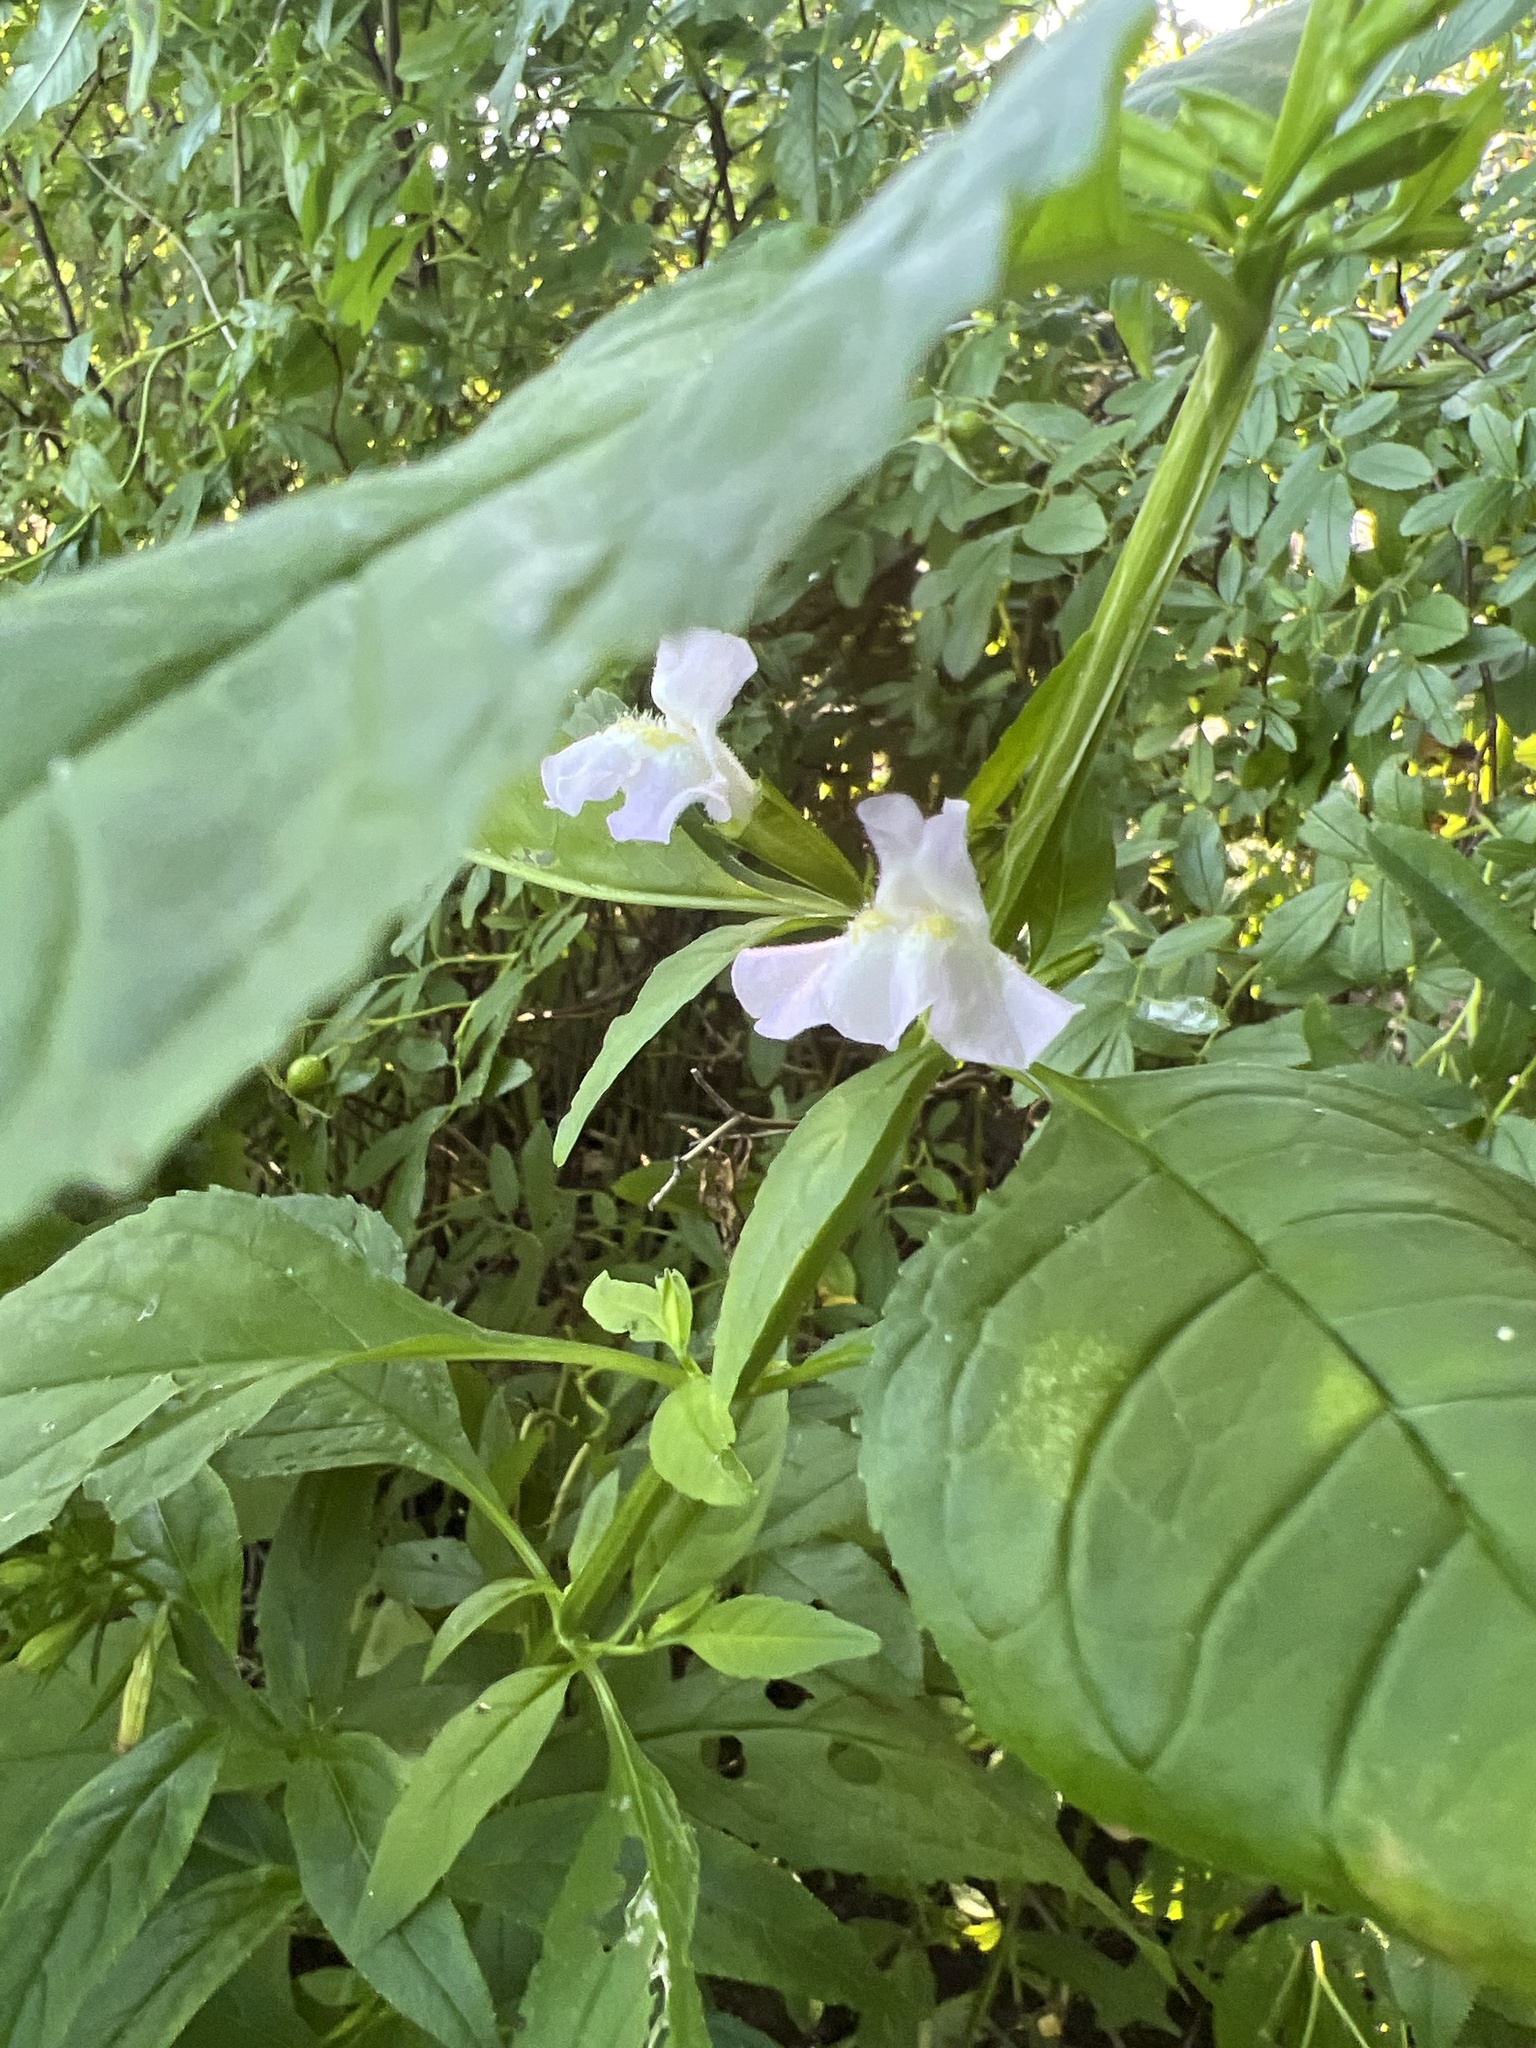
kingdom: Plantae
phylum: Tracheophyta
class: Magnoliopsida
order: Lamiales
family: Phrymaceae
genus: Mimulus
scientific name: Mimulus alatus
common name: Sharp-wing monkey-flower
